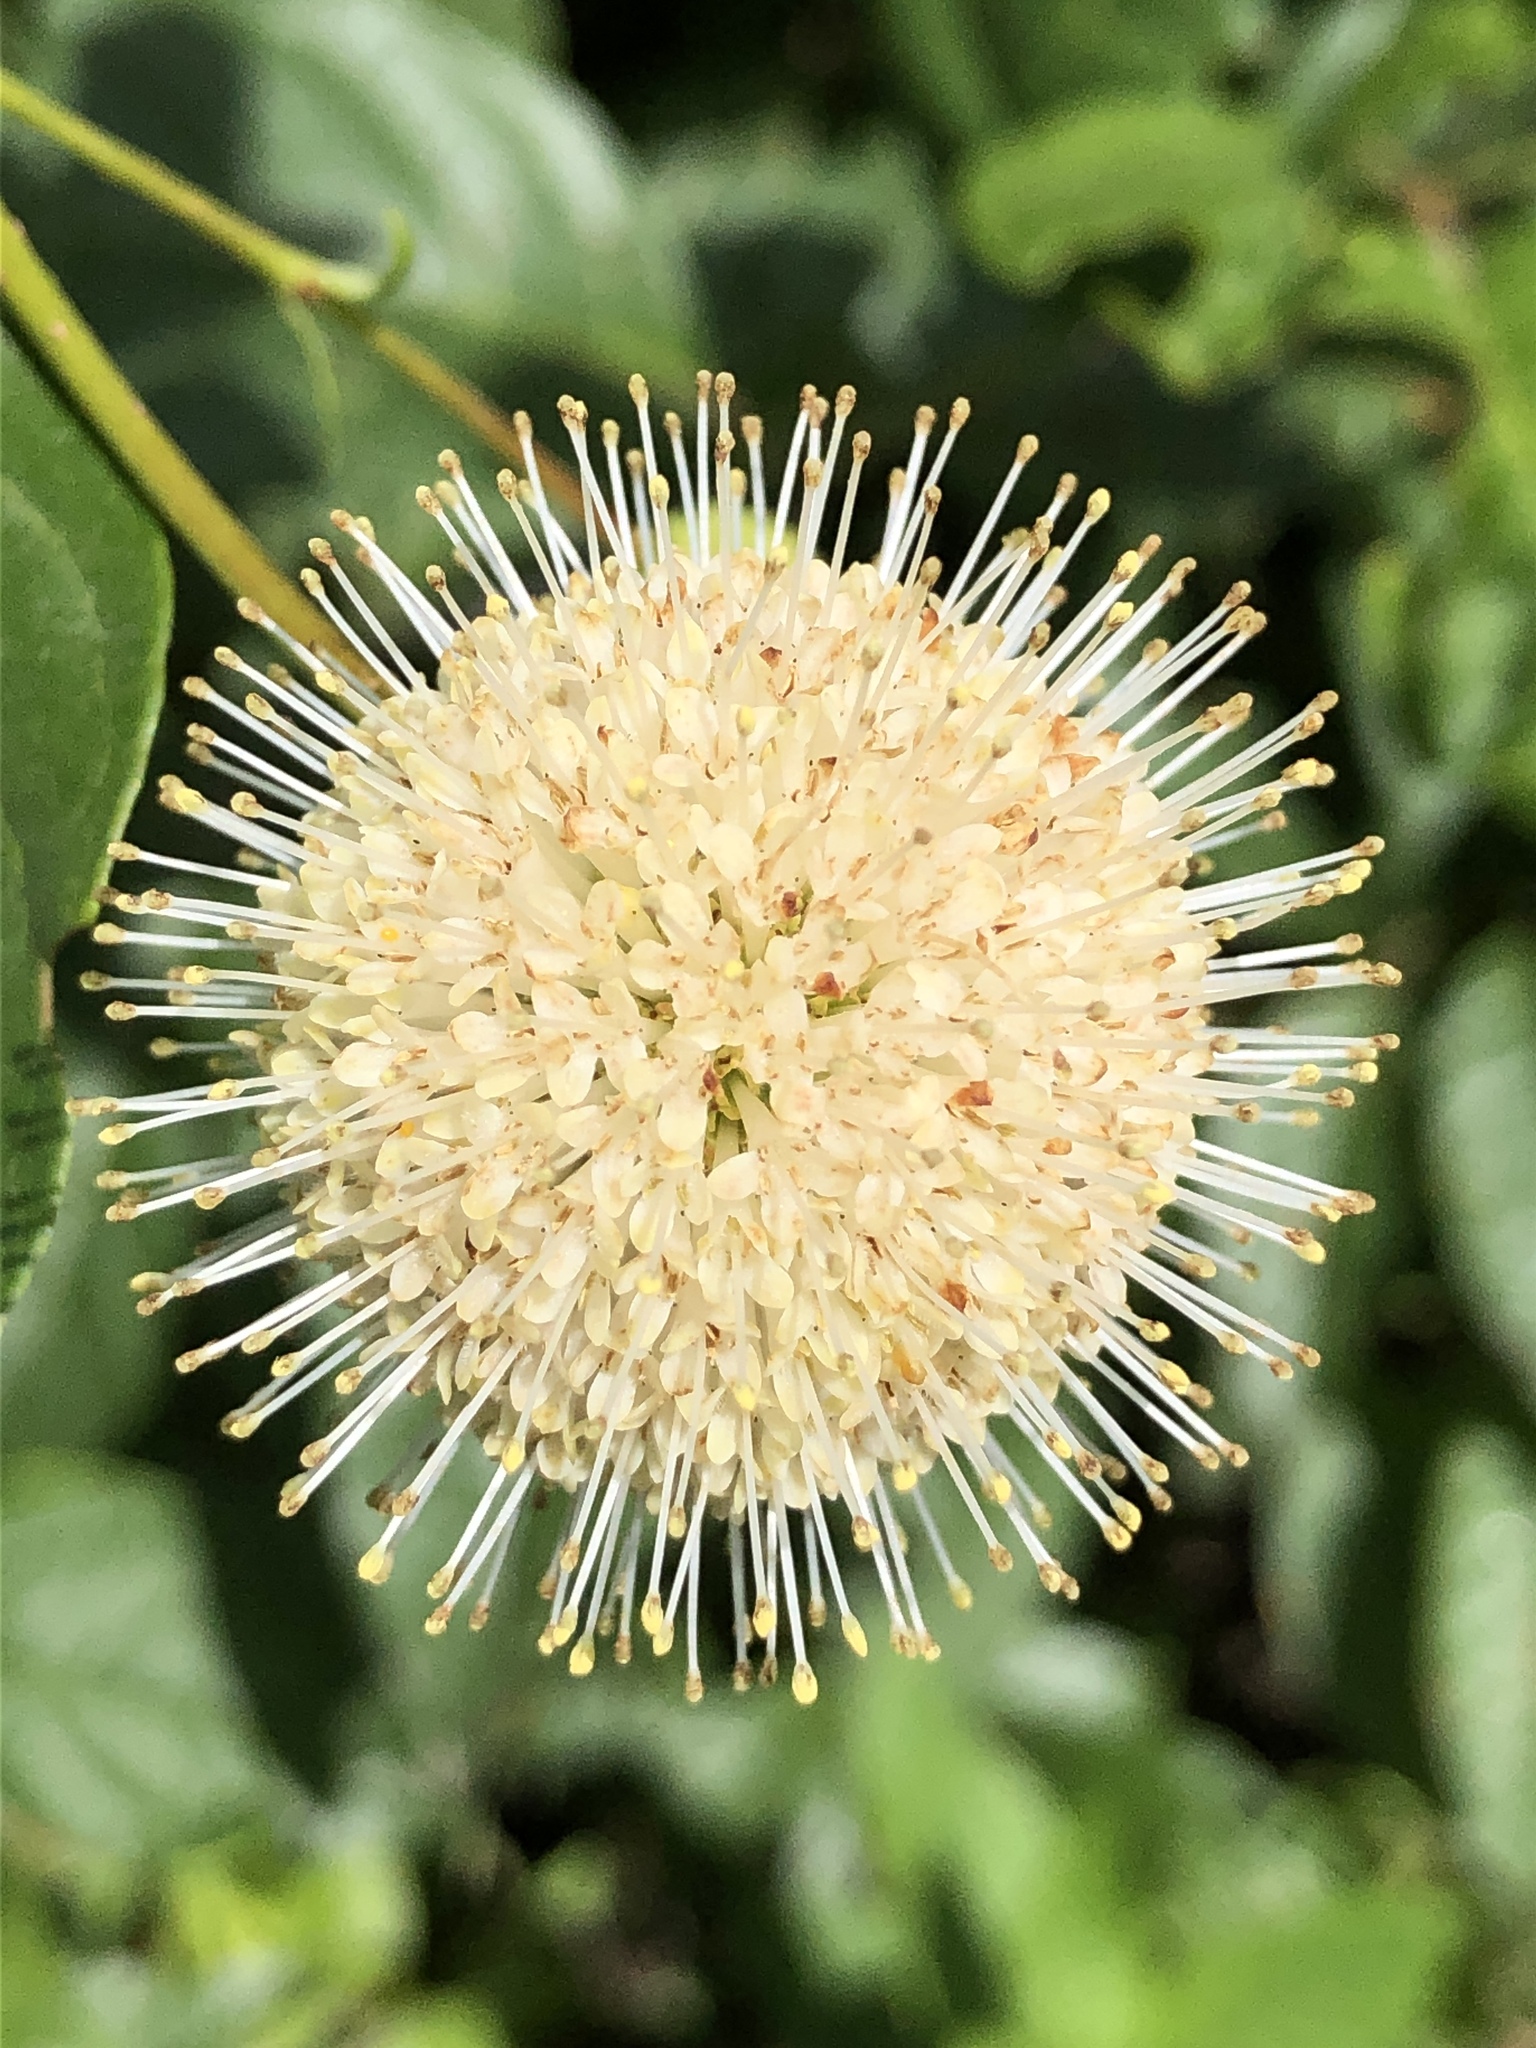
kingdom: Plantae
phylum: Tracheophyta
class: Magnoliopsida
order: Gentianales
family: Rubiaceae
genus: Cephalanthus
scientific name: Cephalanthus occidentalis
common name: Button-willow
